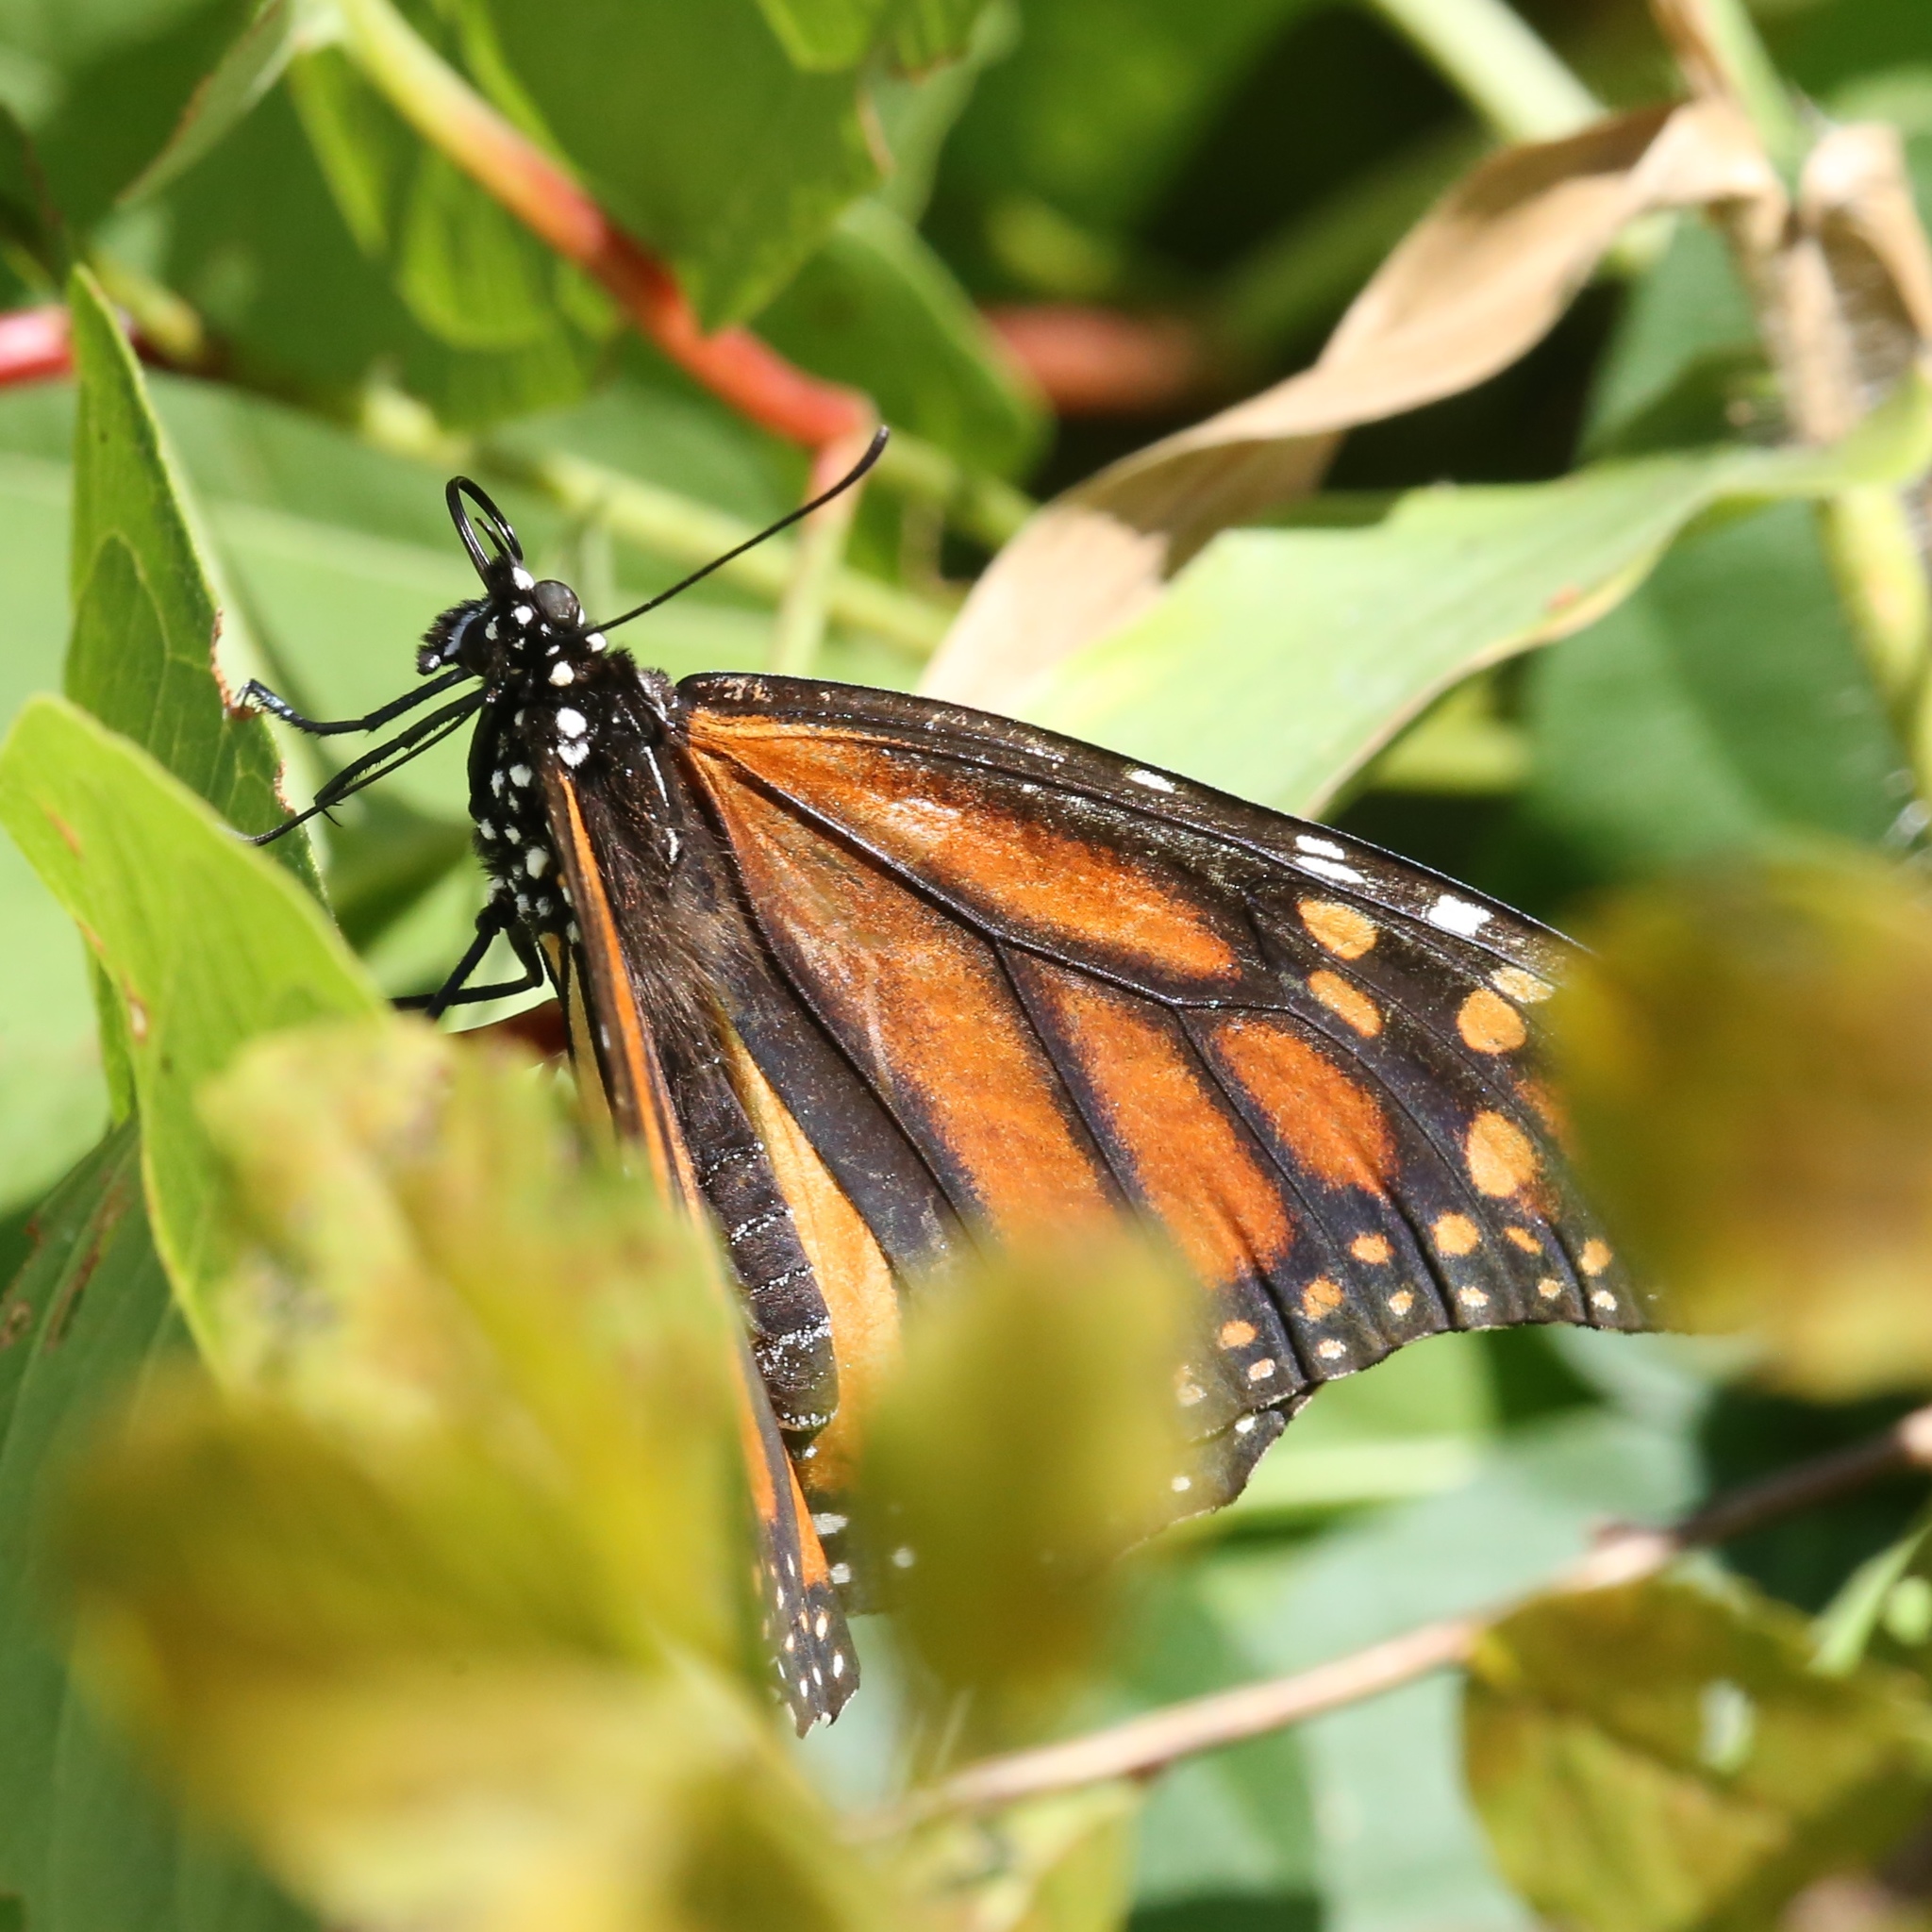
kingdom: Animalia
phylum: Arthropoda
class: Insecta
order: Lepidoptera
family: Nymphalidae
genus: Danaus
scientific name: Danaus plexippus
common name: Monarch
